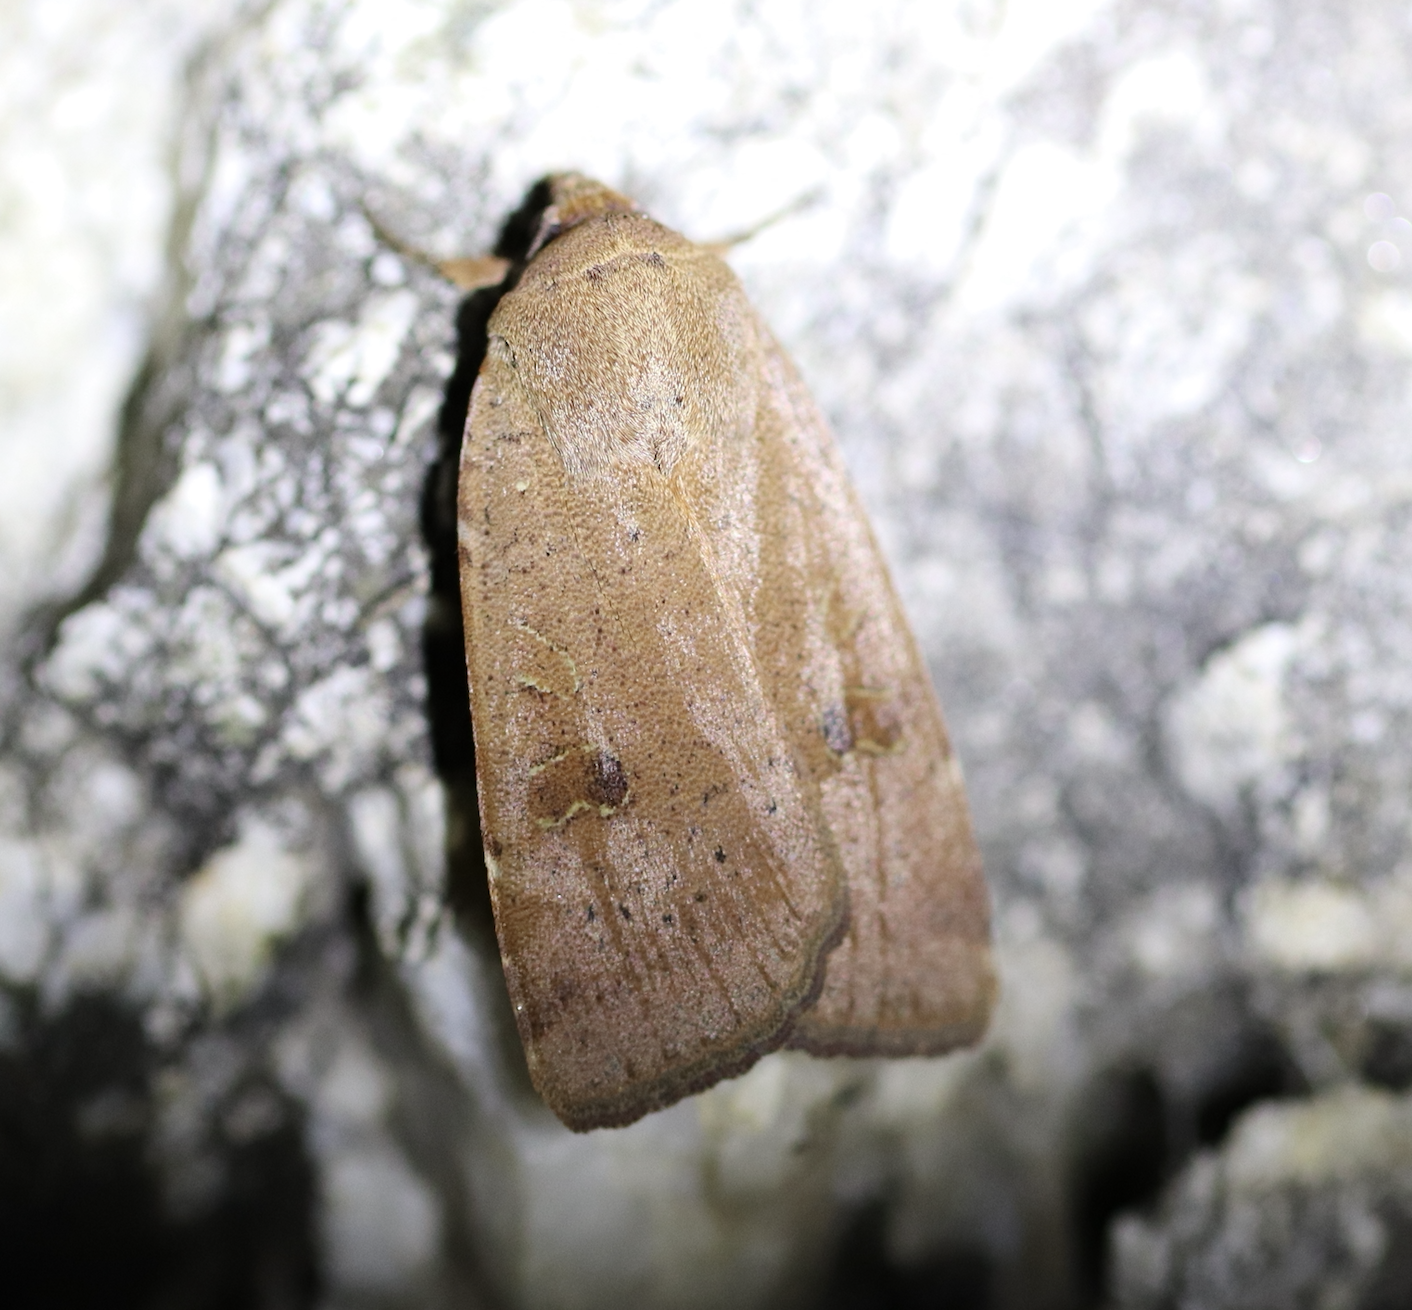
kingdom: Animalia
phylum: Arthropoda
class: Insecta
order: Lepidoptera
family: Noctuidae
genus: Noctua
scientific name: Noctua comes
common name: Lesser yellow underwing
